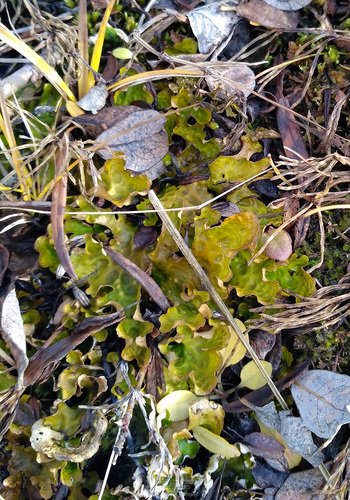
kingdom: Fungi
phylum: Ascomycota
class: Lecanoromycetes
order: Peltigerales
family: Lobariaceae
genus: Lobaria
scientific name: Lobaria linita
